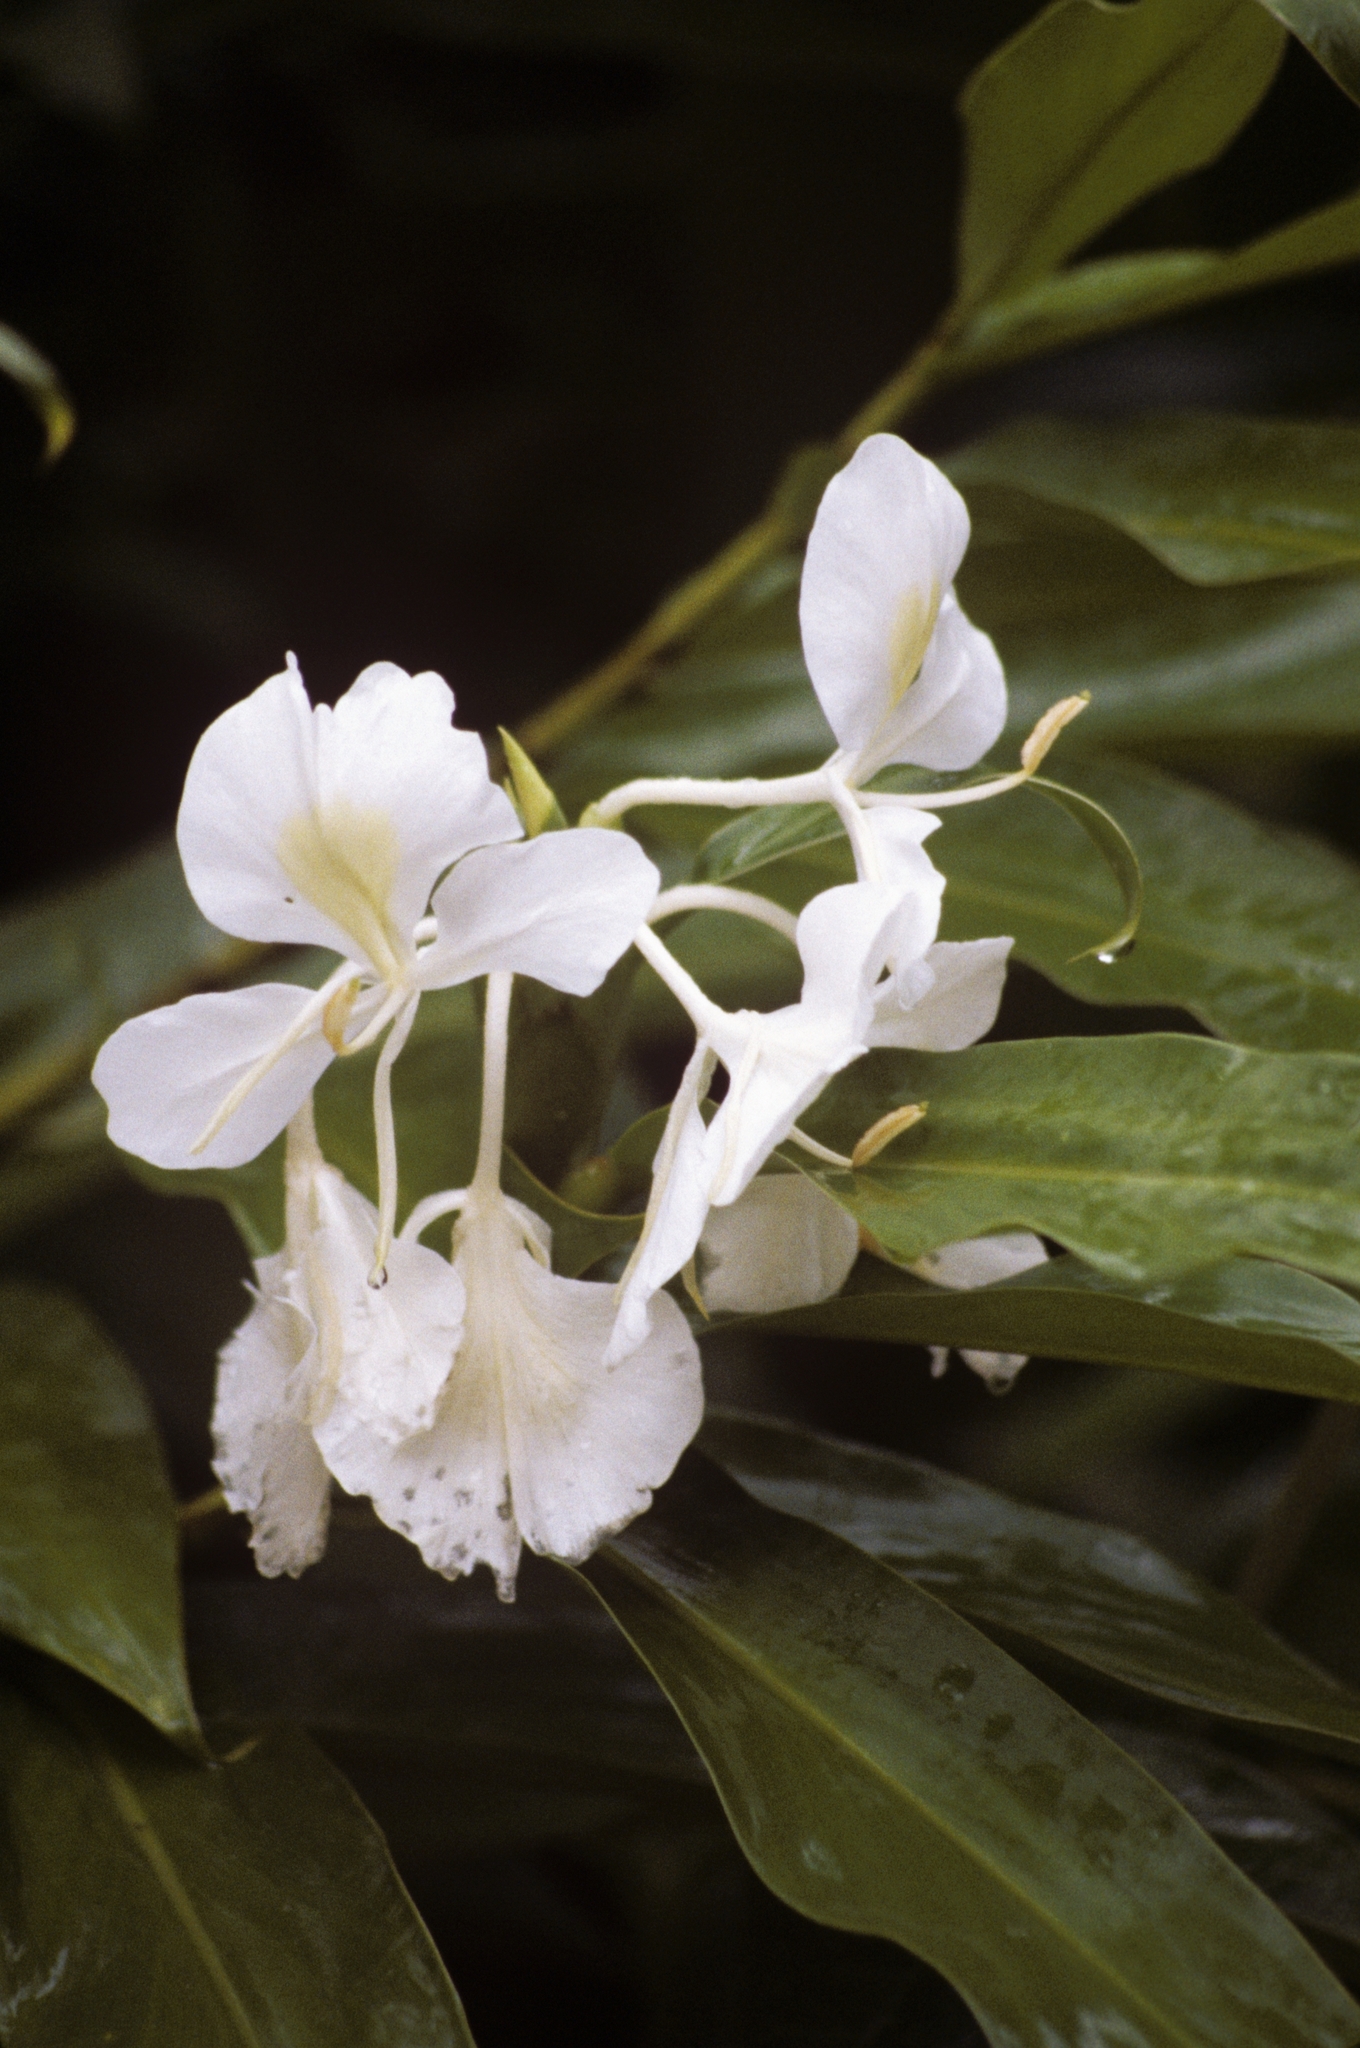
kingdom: Plantae
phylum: Tracheophyta
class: Liliopsida
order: Zingiberales
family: Zingiberaceae
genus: Hedychium
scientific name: Hedychium coronarium
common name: White garland-lily
